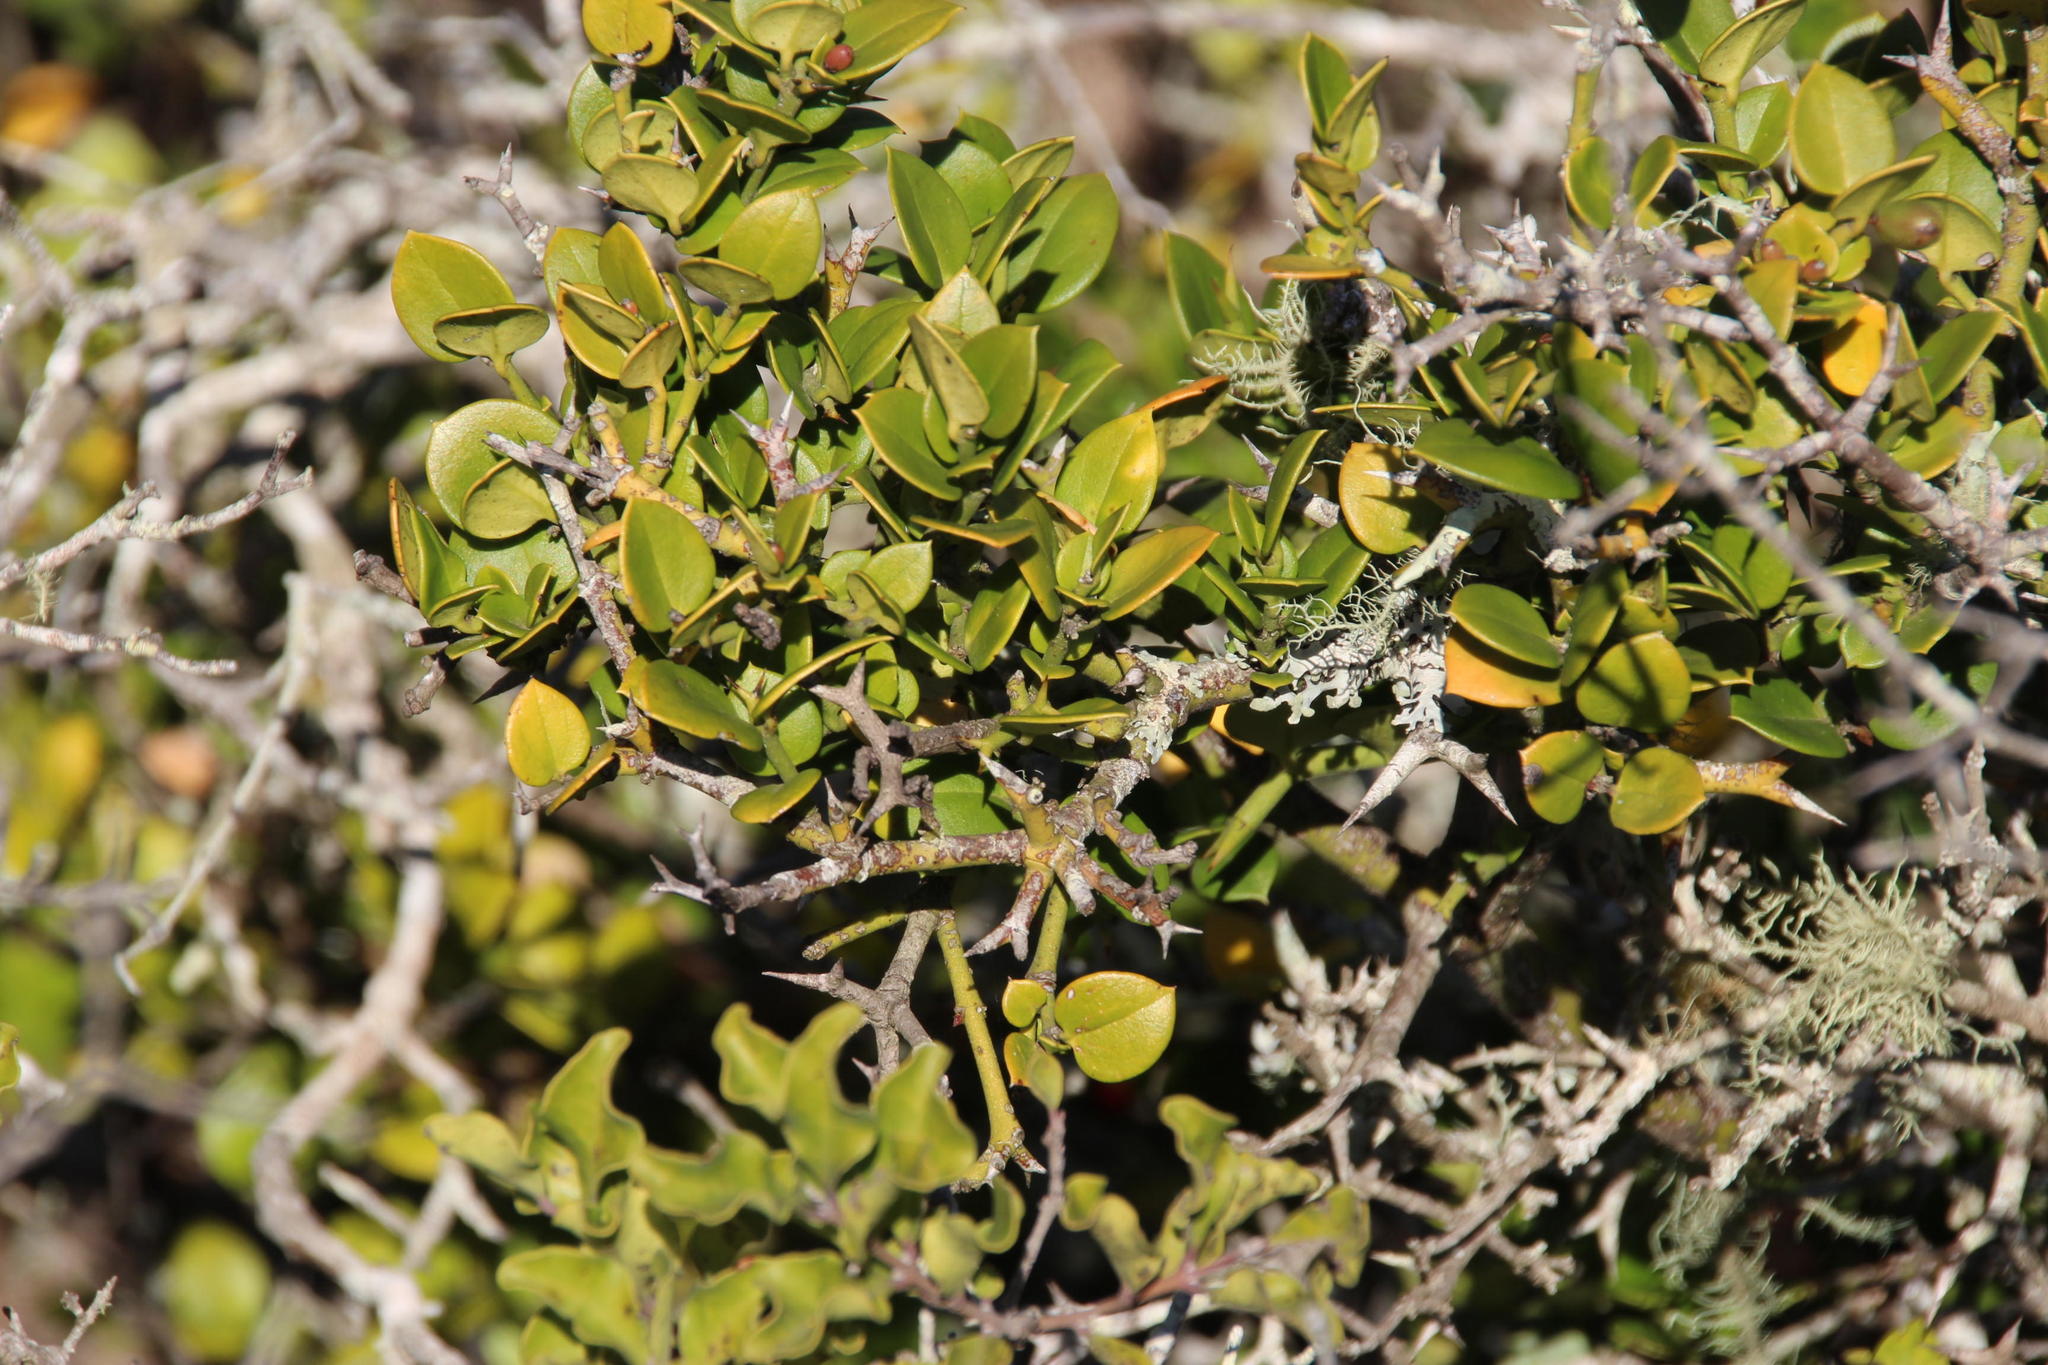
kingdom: Plantae
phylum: Tracheophyta
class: Magnoliopsida
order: Gentianales
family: Apocynaceae
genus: Carissa
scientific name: Carissa bispinosa
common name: Forest num-num
